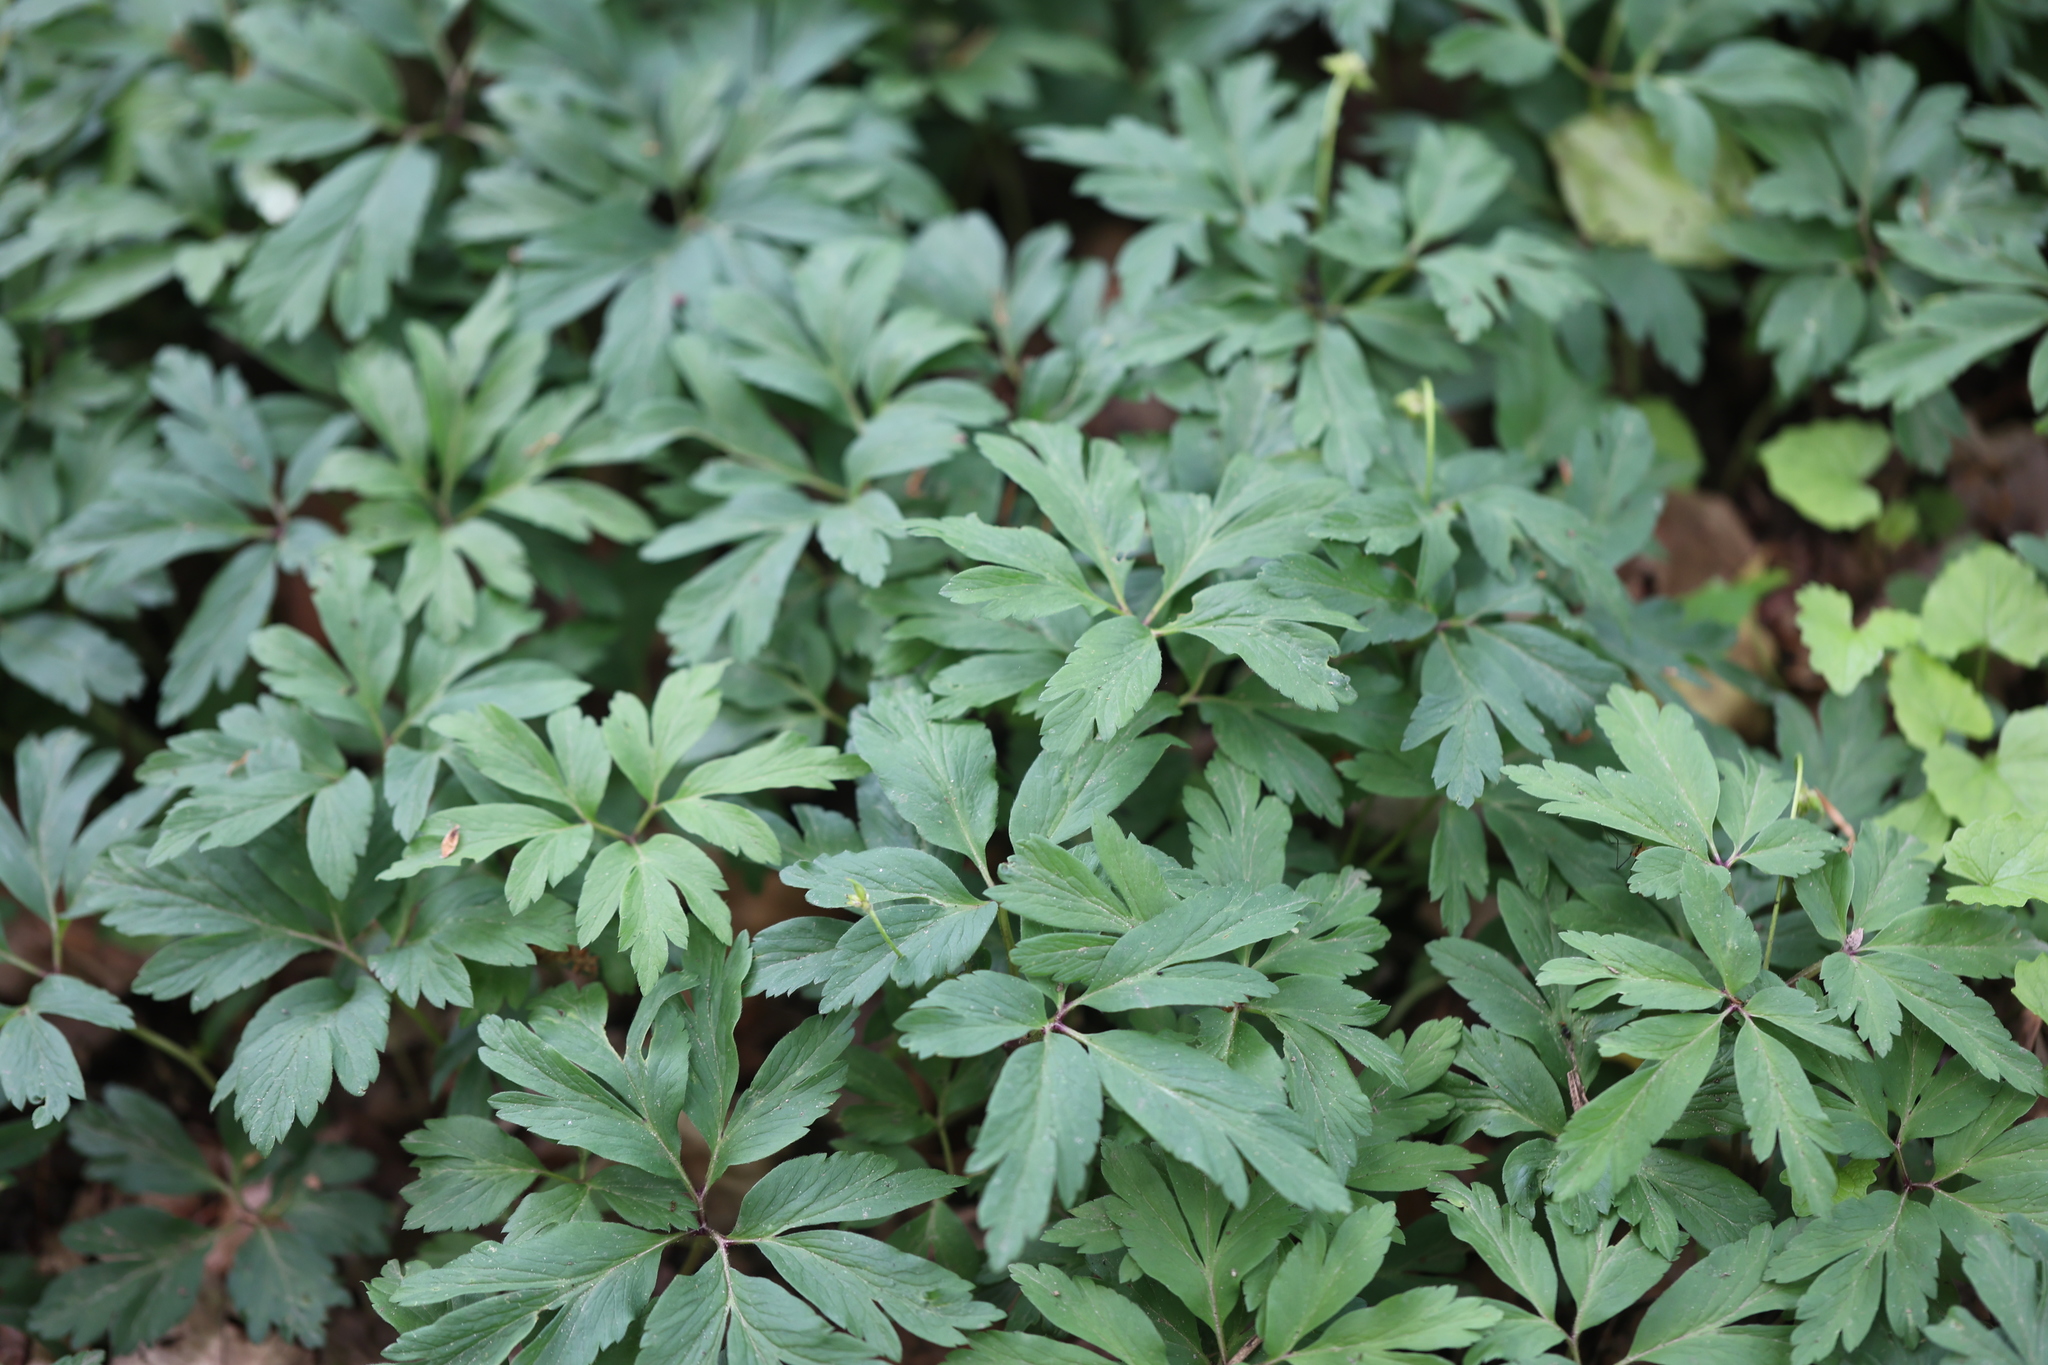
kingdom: Plantae
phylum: Tracheophyta
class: Magnoliopsida
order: Ranunculales
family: Ranunculaceae
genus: Anemone
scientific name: Anemone nemorosa
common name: Wood anemone
